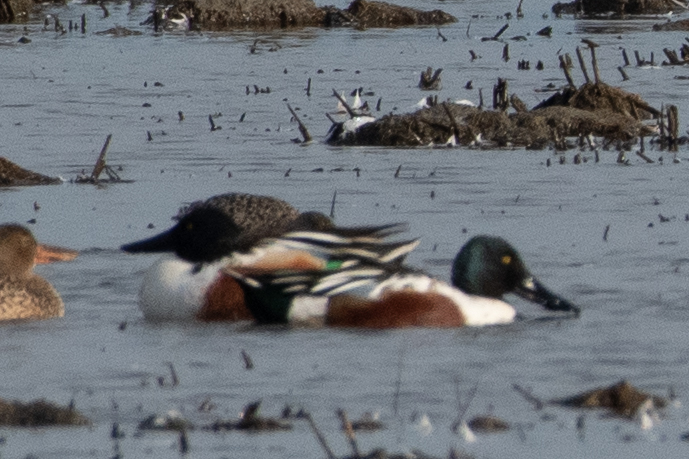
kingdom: Animalia
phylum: Chordata
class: Aves
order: Anseriformes
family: Anatidae
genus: Spatula
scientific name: Spatula clypeata
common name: Northern shoveler
